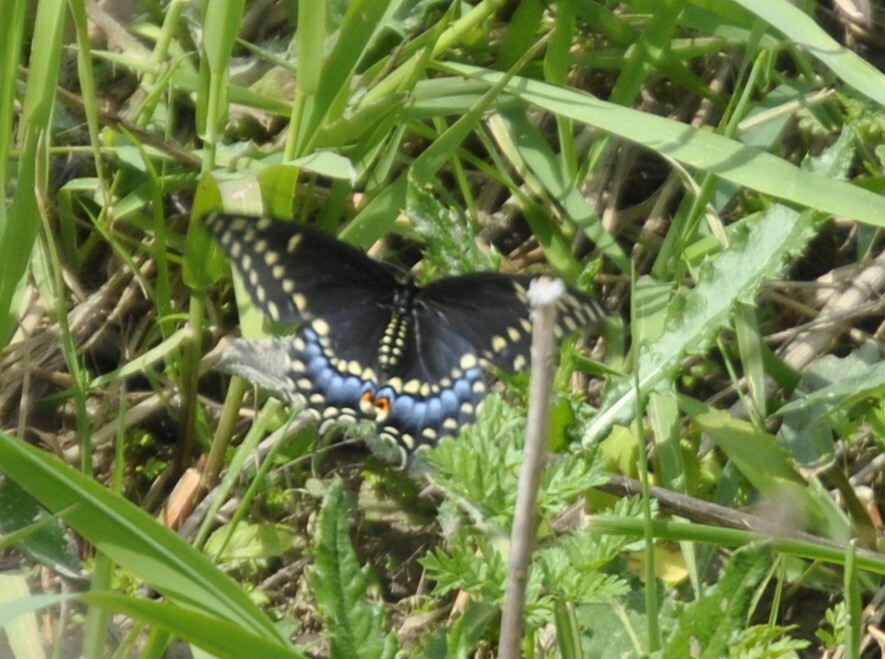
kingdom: Animalia
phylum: Arthropoda
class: Insecta
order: Lepidoptera
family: Papilionidae
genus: Papilio
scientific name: Papilio polyxenes
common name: Black swallowtail
